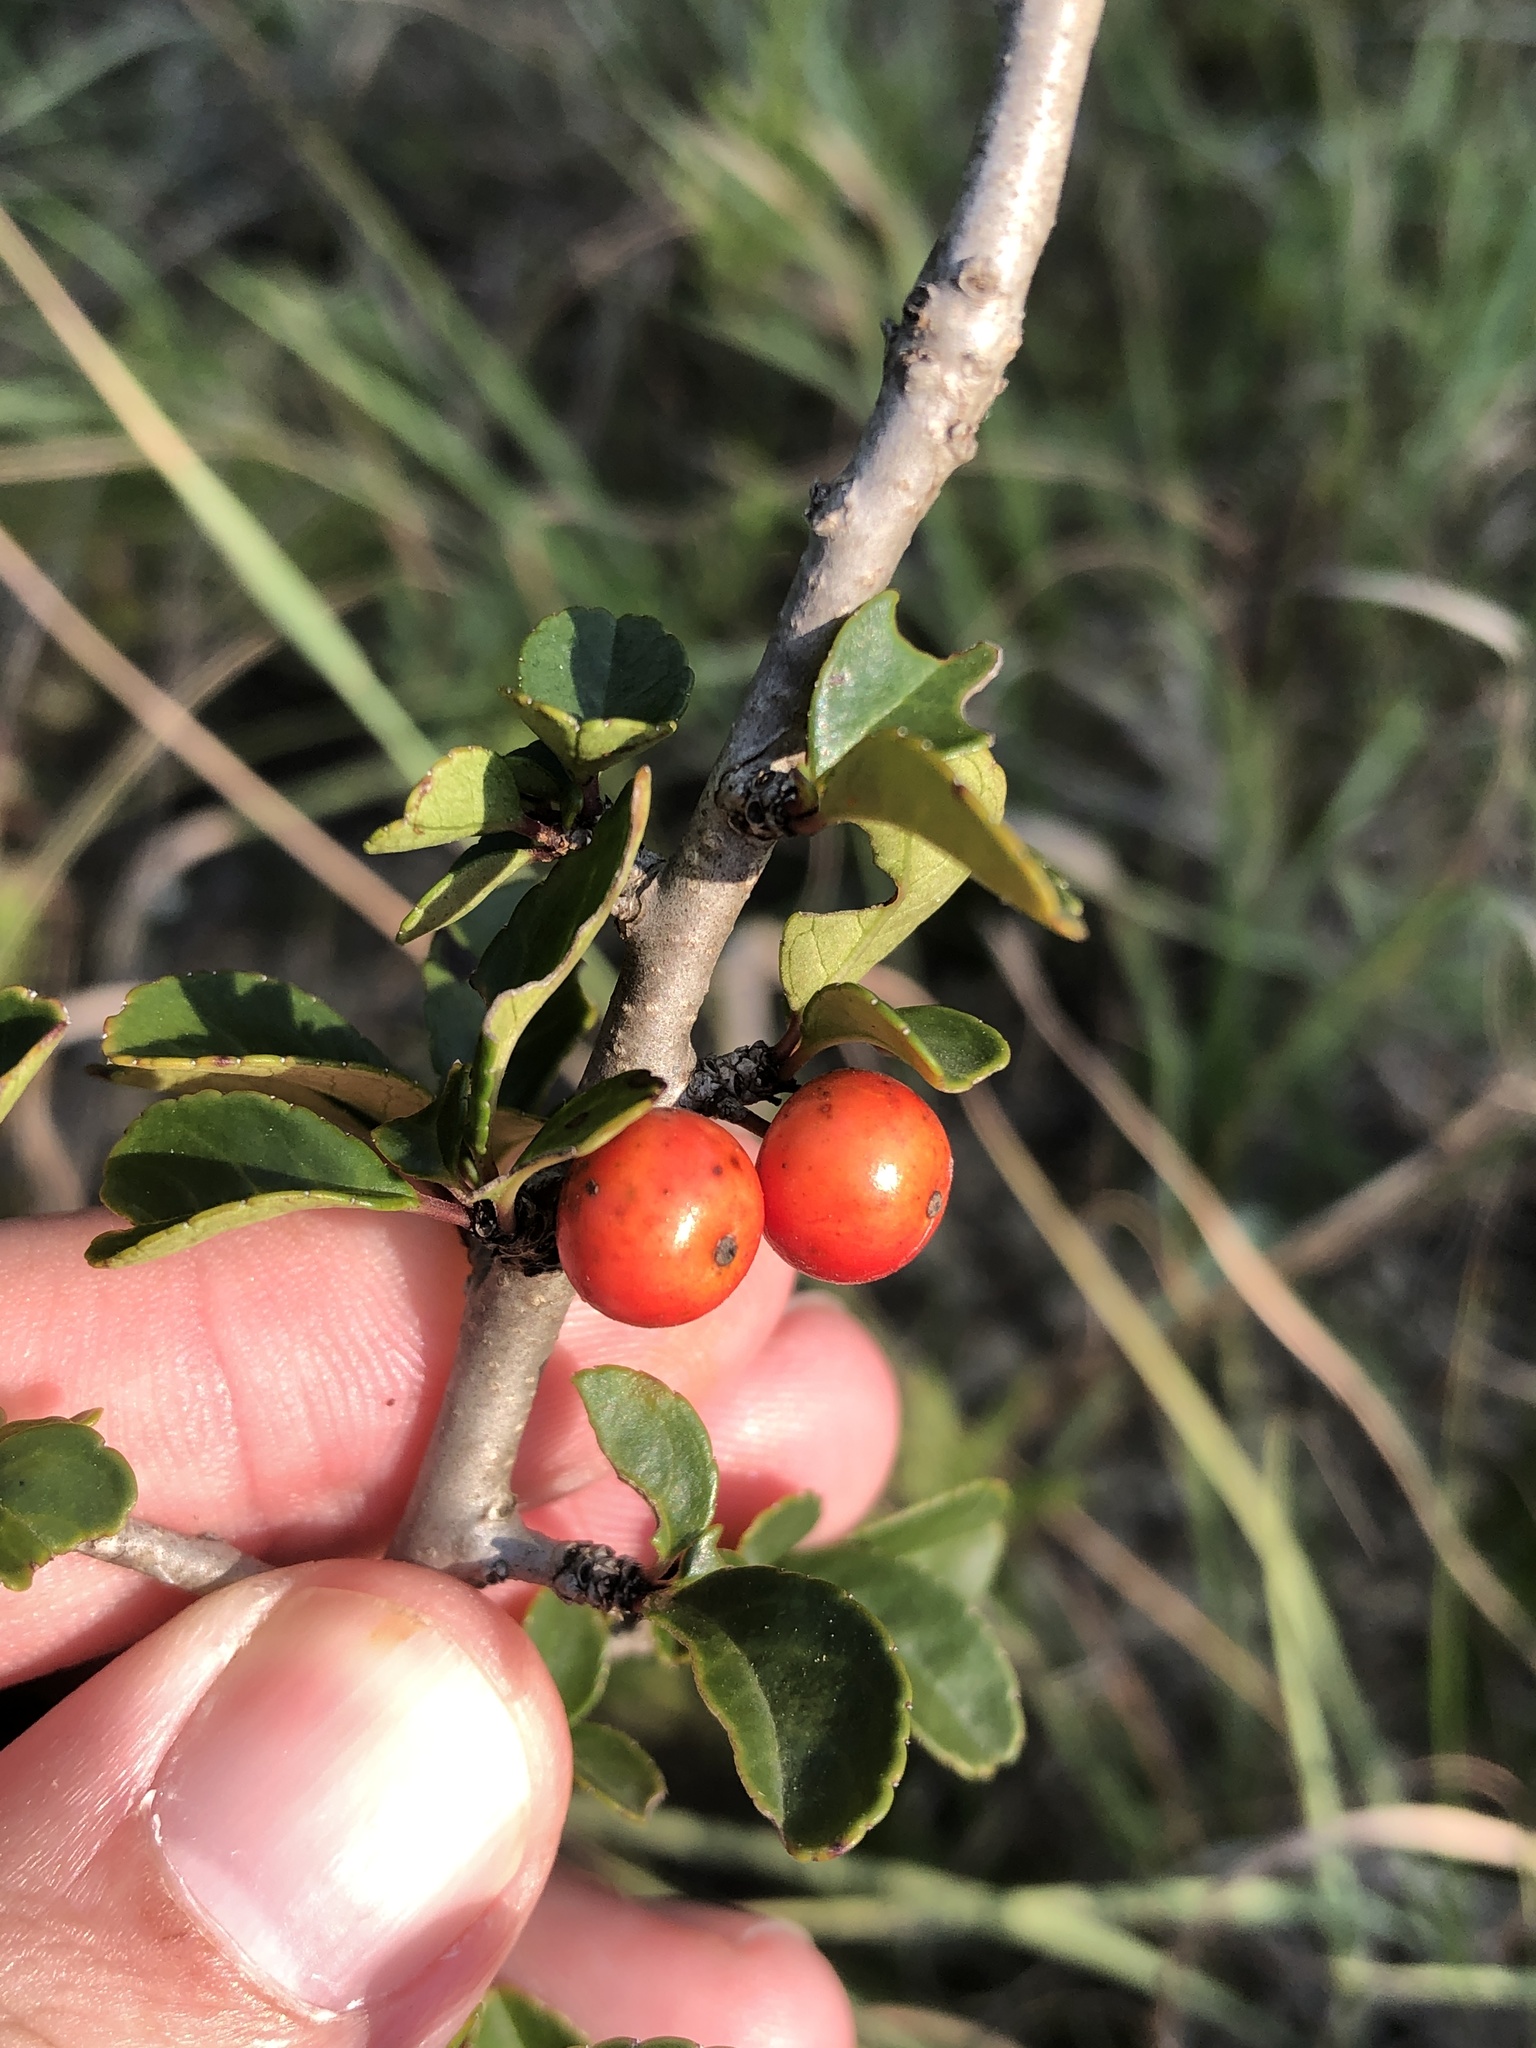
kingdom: Plantae
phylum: Tracheophyta
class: Magnoliopsida
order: Aquifoliales
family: Aquifoliaceae
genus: Ilex
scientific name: Ilex decidua
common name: Possum-haw
